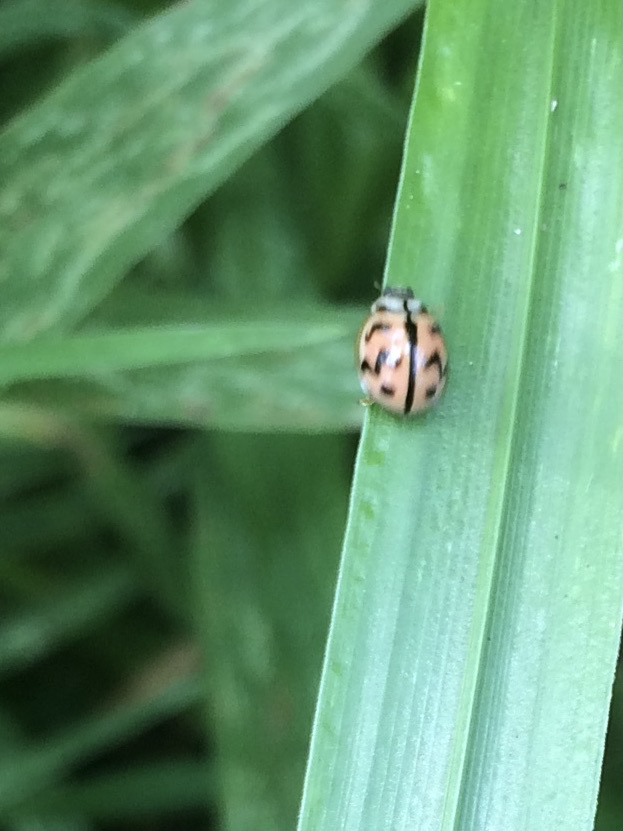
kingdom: Animalia
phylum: Arthropoda
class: Insecta
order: Coleoptera
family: Coccinellidae
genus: Cheilomenes
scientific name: Cheilomenes sexmaculata
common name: Ladybird beetle
